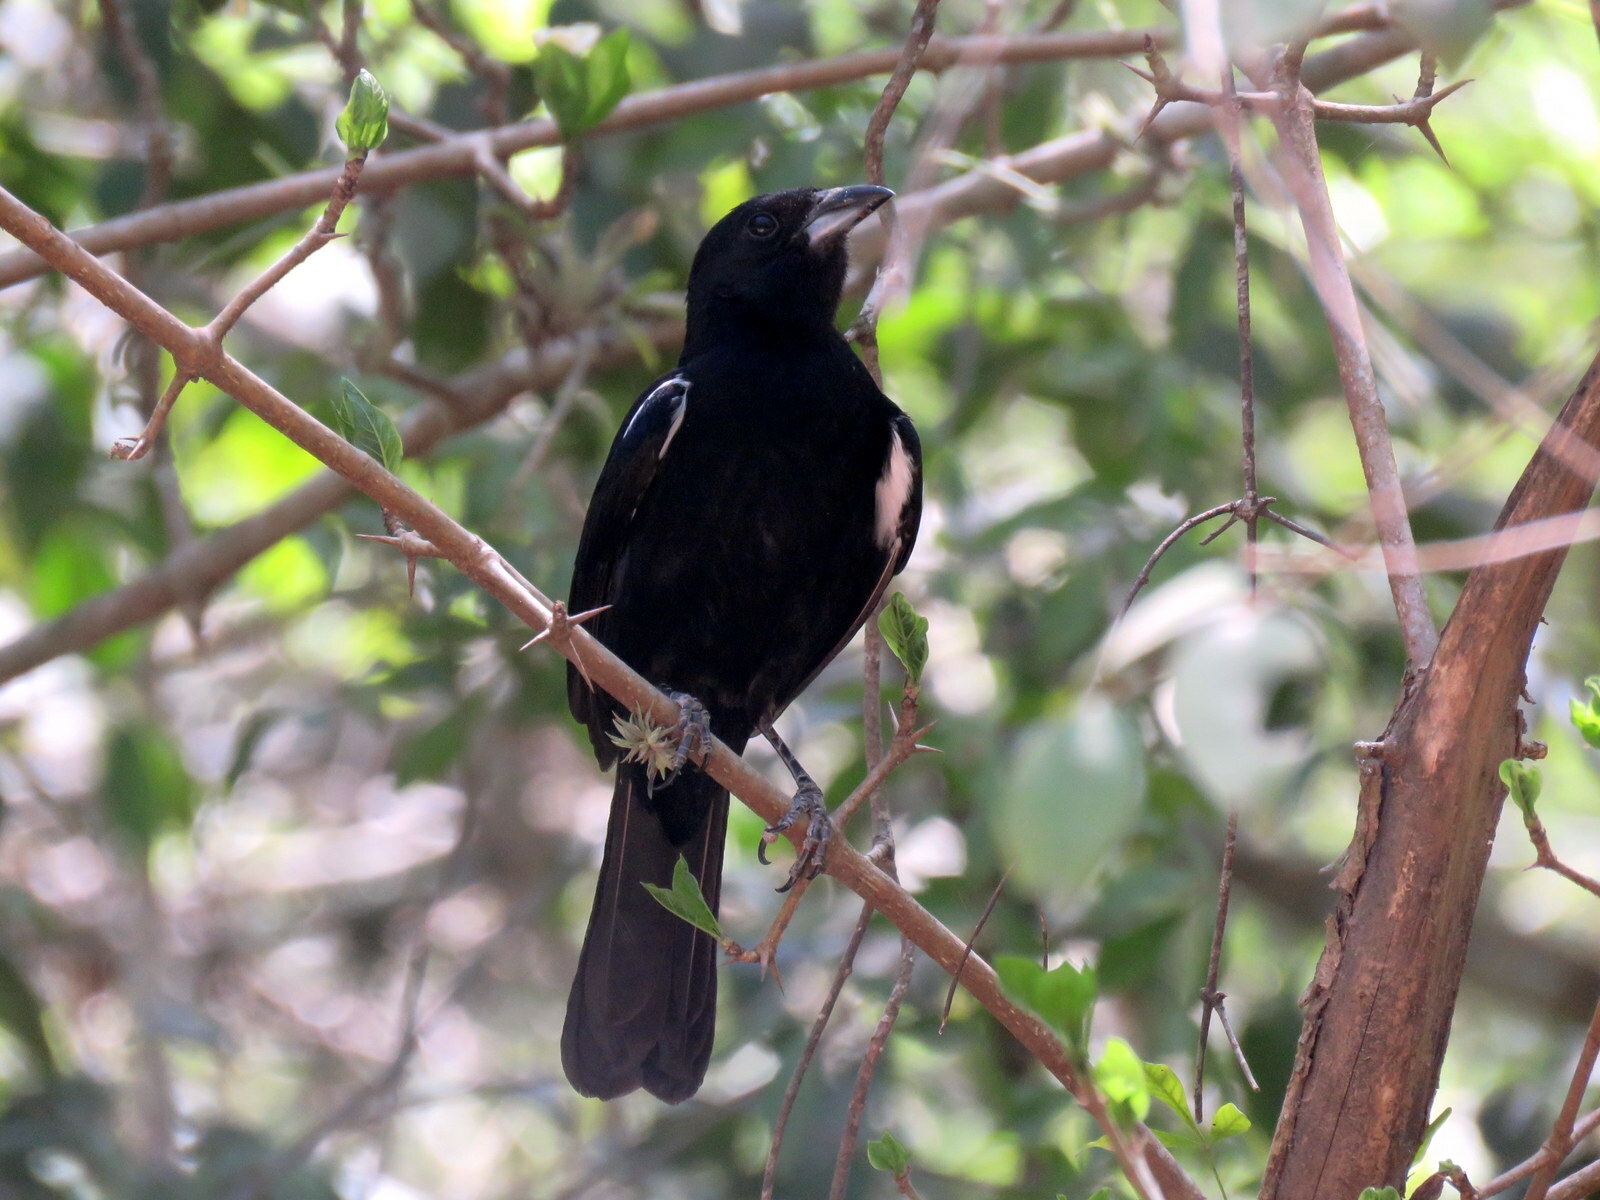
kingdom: Animalia
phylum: Chordata
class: Aves
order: Passeriformes
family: Thraupidae
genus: Tachyphonus
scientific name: Tachyphonus rufus
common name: White-lined tanager
